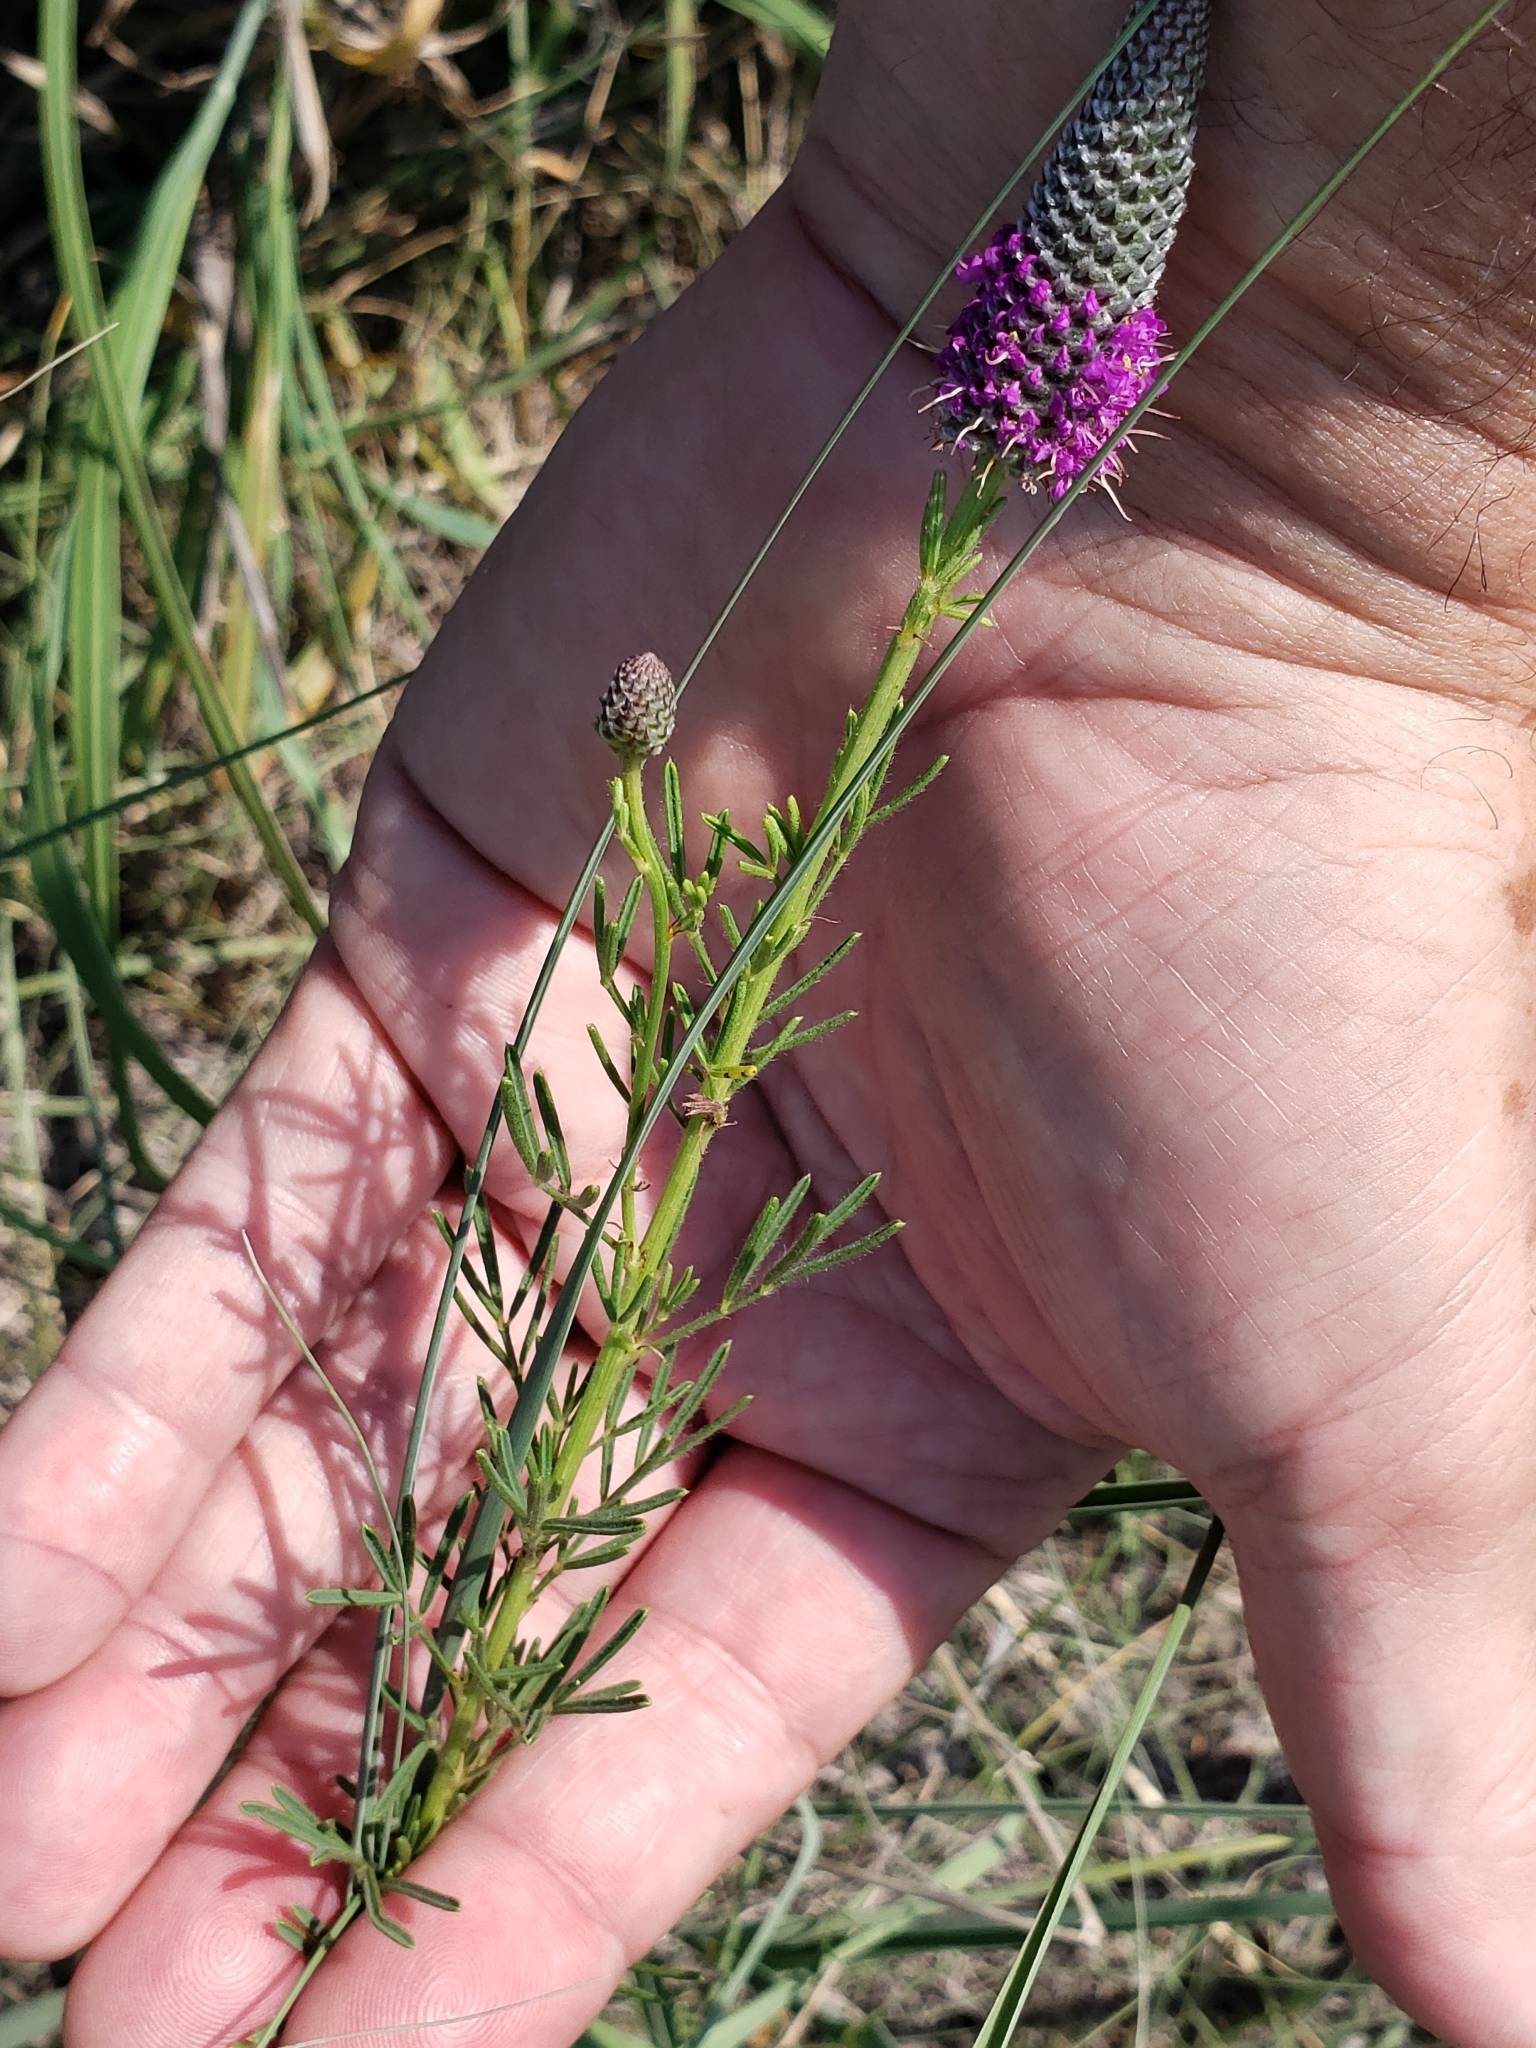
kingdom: Plantae
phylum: Tracheophyta
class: Magnoliopsida
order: Fabales
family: Fabaceae
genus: Dalea
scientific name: Dalea purpurea
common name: Purple prairie-clover
